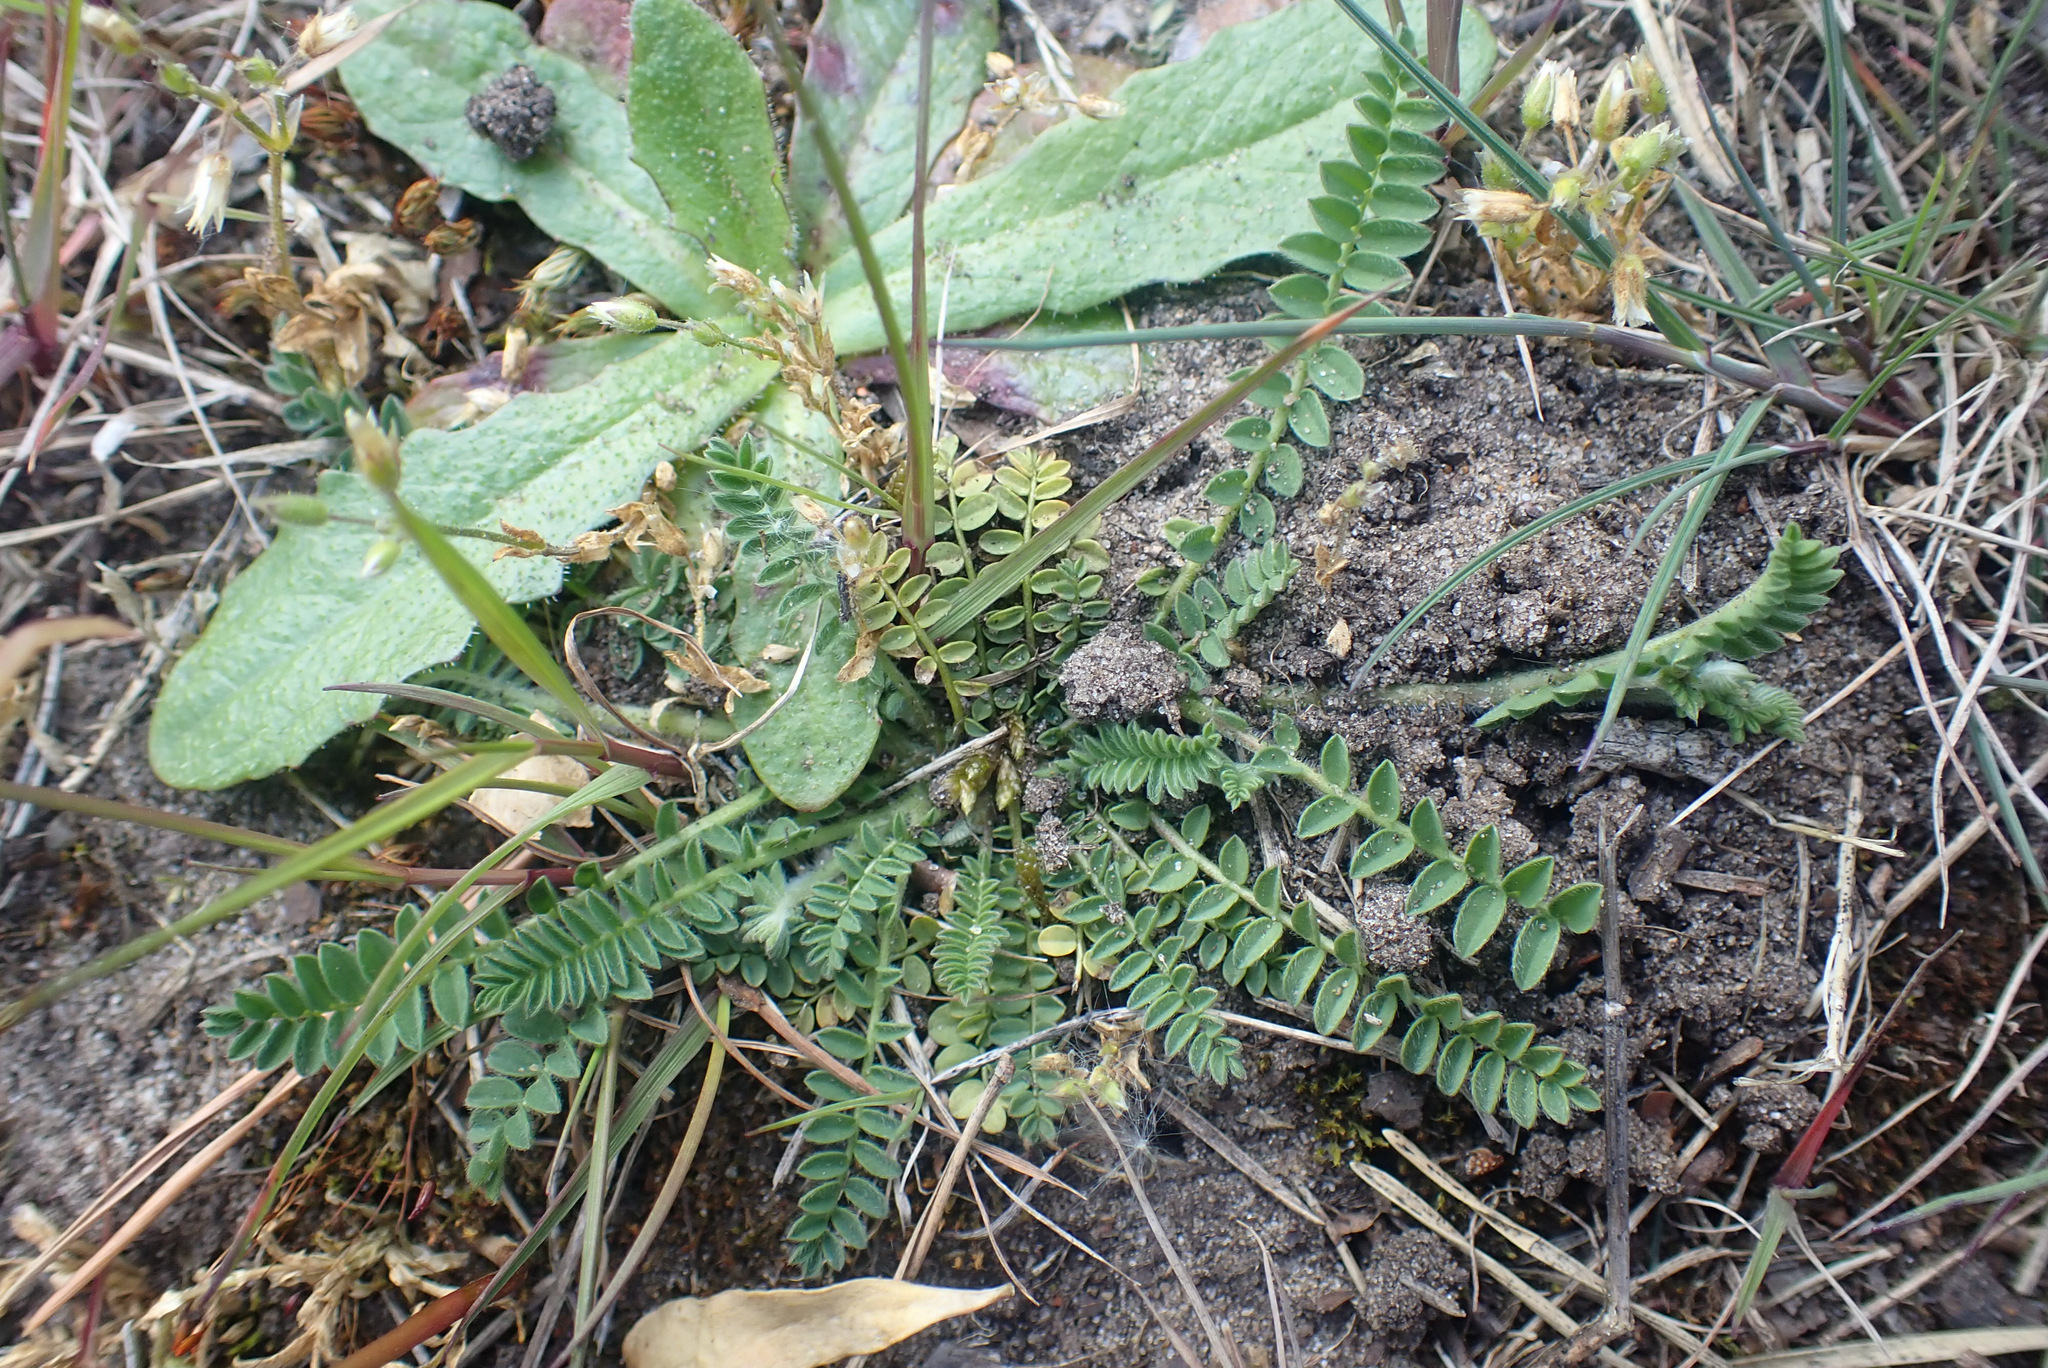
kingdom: Plantae
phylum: Tracheophyta
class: Magnoliopsida
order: Fabales
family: Fabaceae
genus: Ornithopus
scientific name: Ornithopus perpusillus
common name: Bird's-foot
